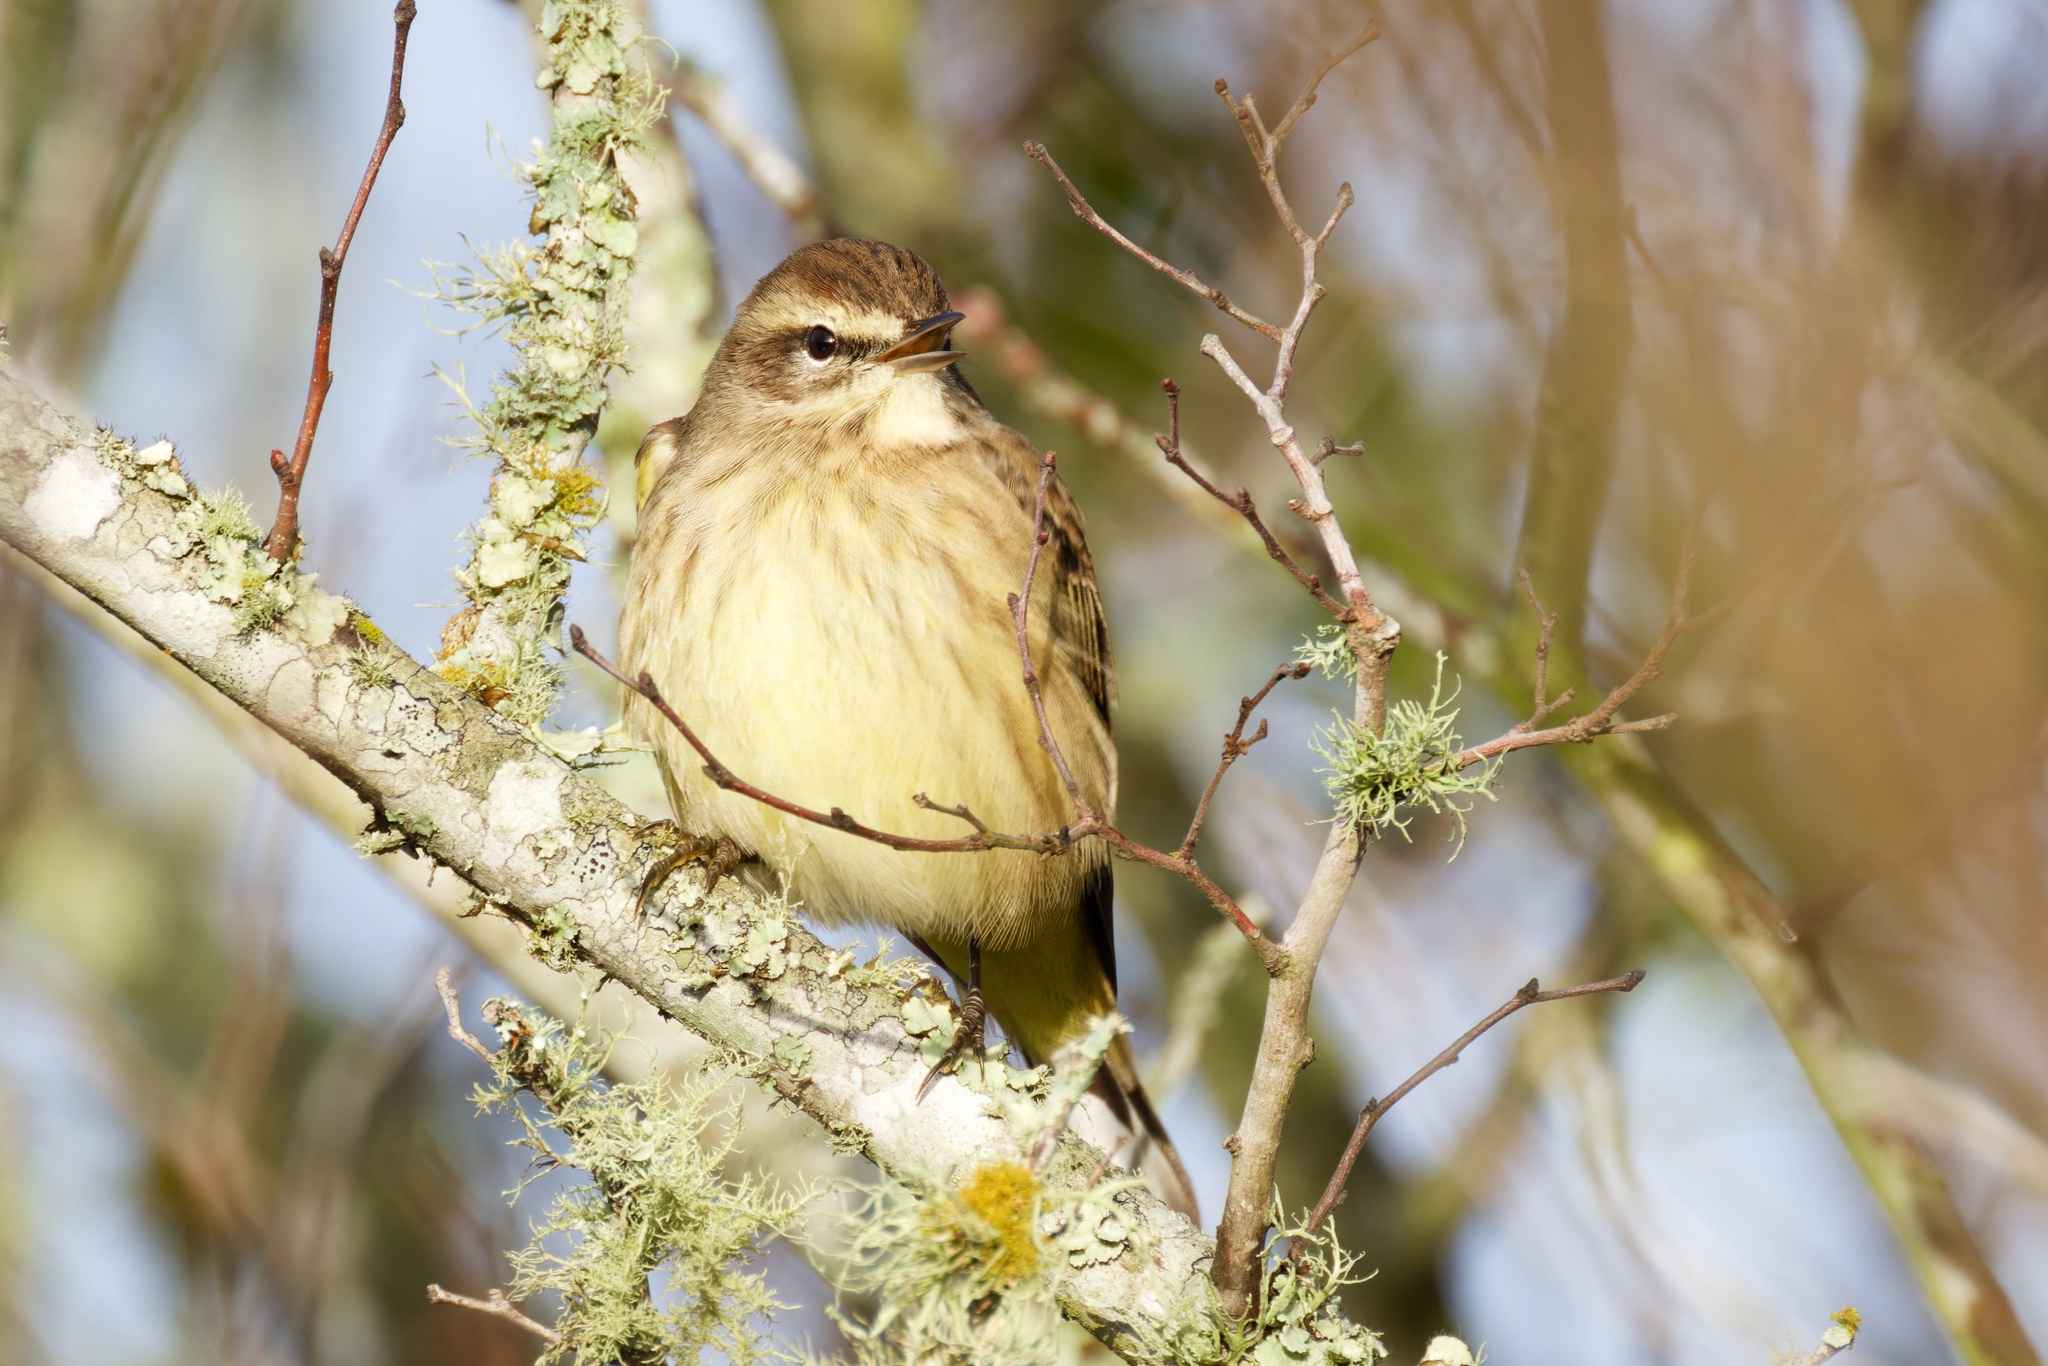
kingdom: Animalia
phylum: Chordata
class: Aves
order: Passeriformes
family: Parulidae
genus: Setophaga
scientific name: Setophaga palmarum
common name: Palm warbler
